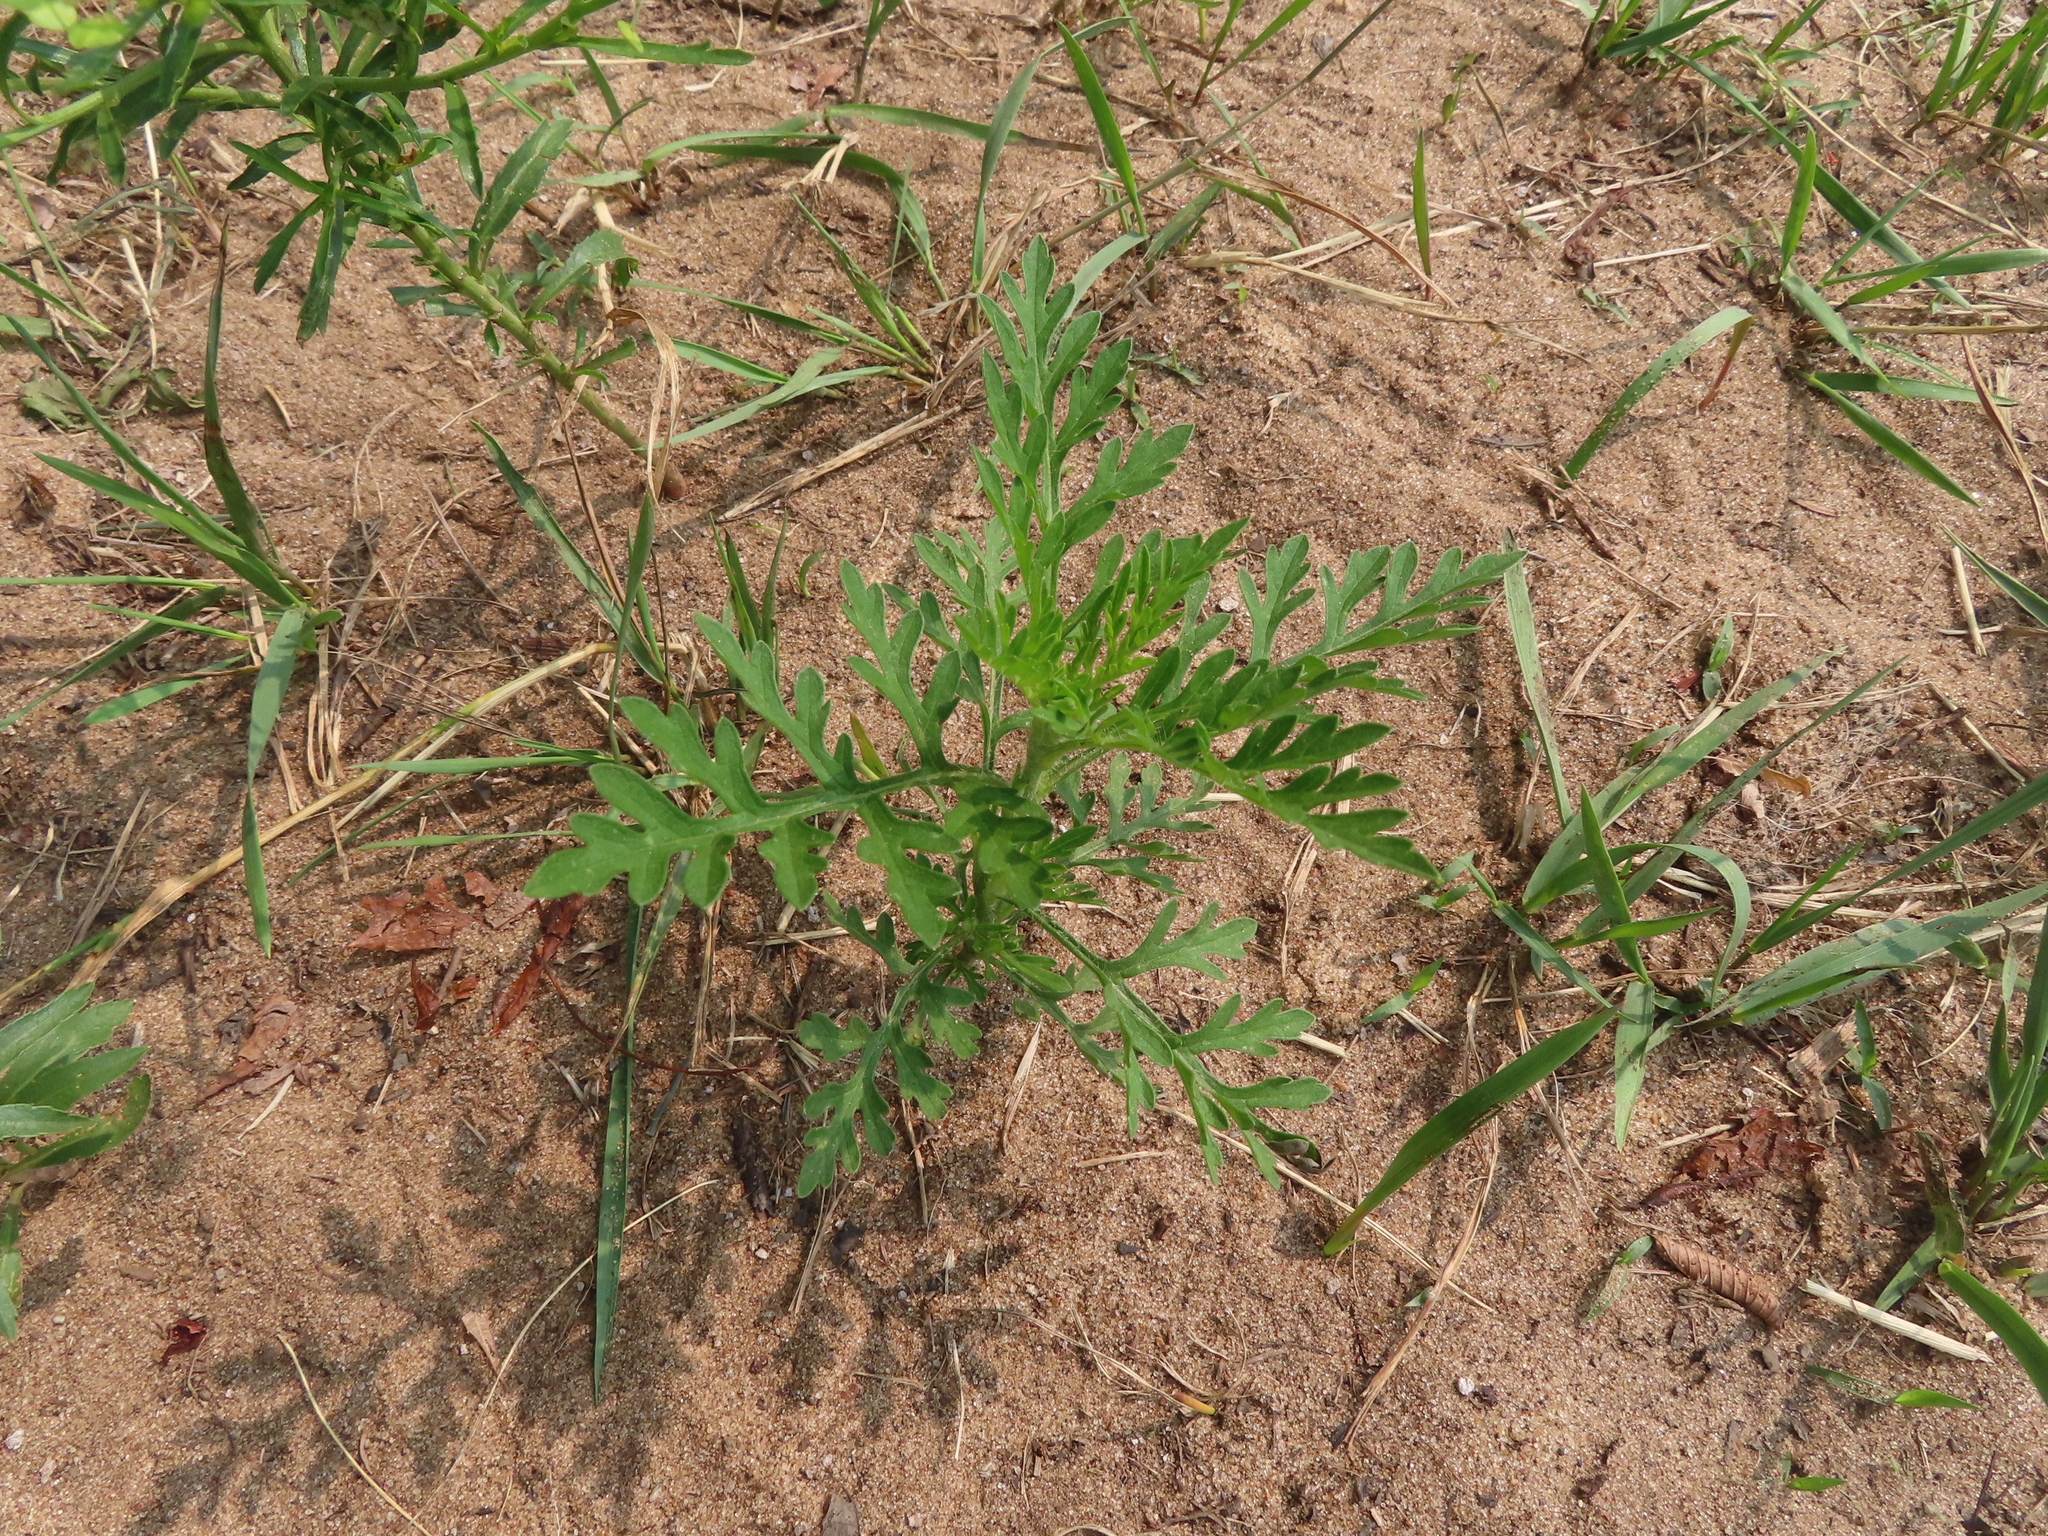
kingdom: Plantae
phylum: Tracheophyta
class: Magnoliopsida
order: Asterales
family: Asteraceae
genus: Ambrosia
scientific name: Ambrosia artemisiifolia
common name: Annual ragweed
